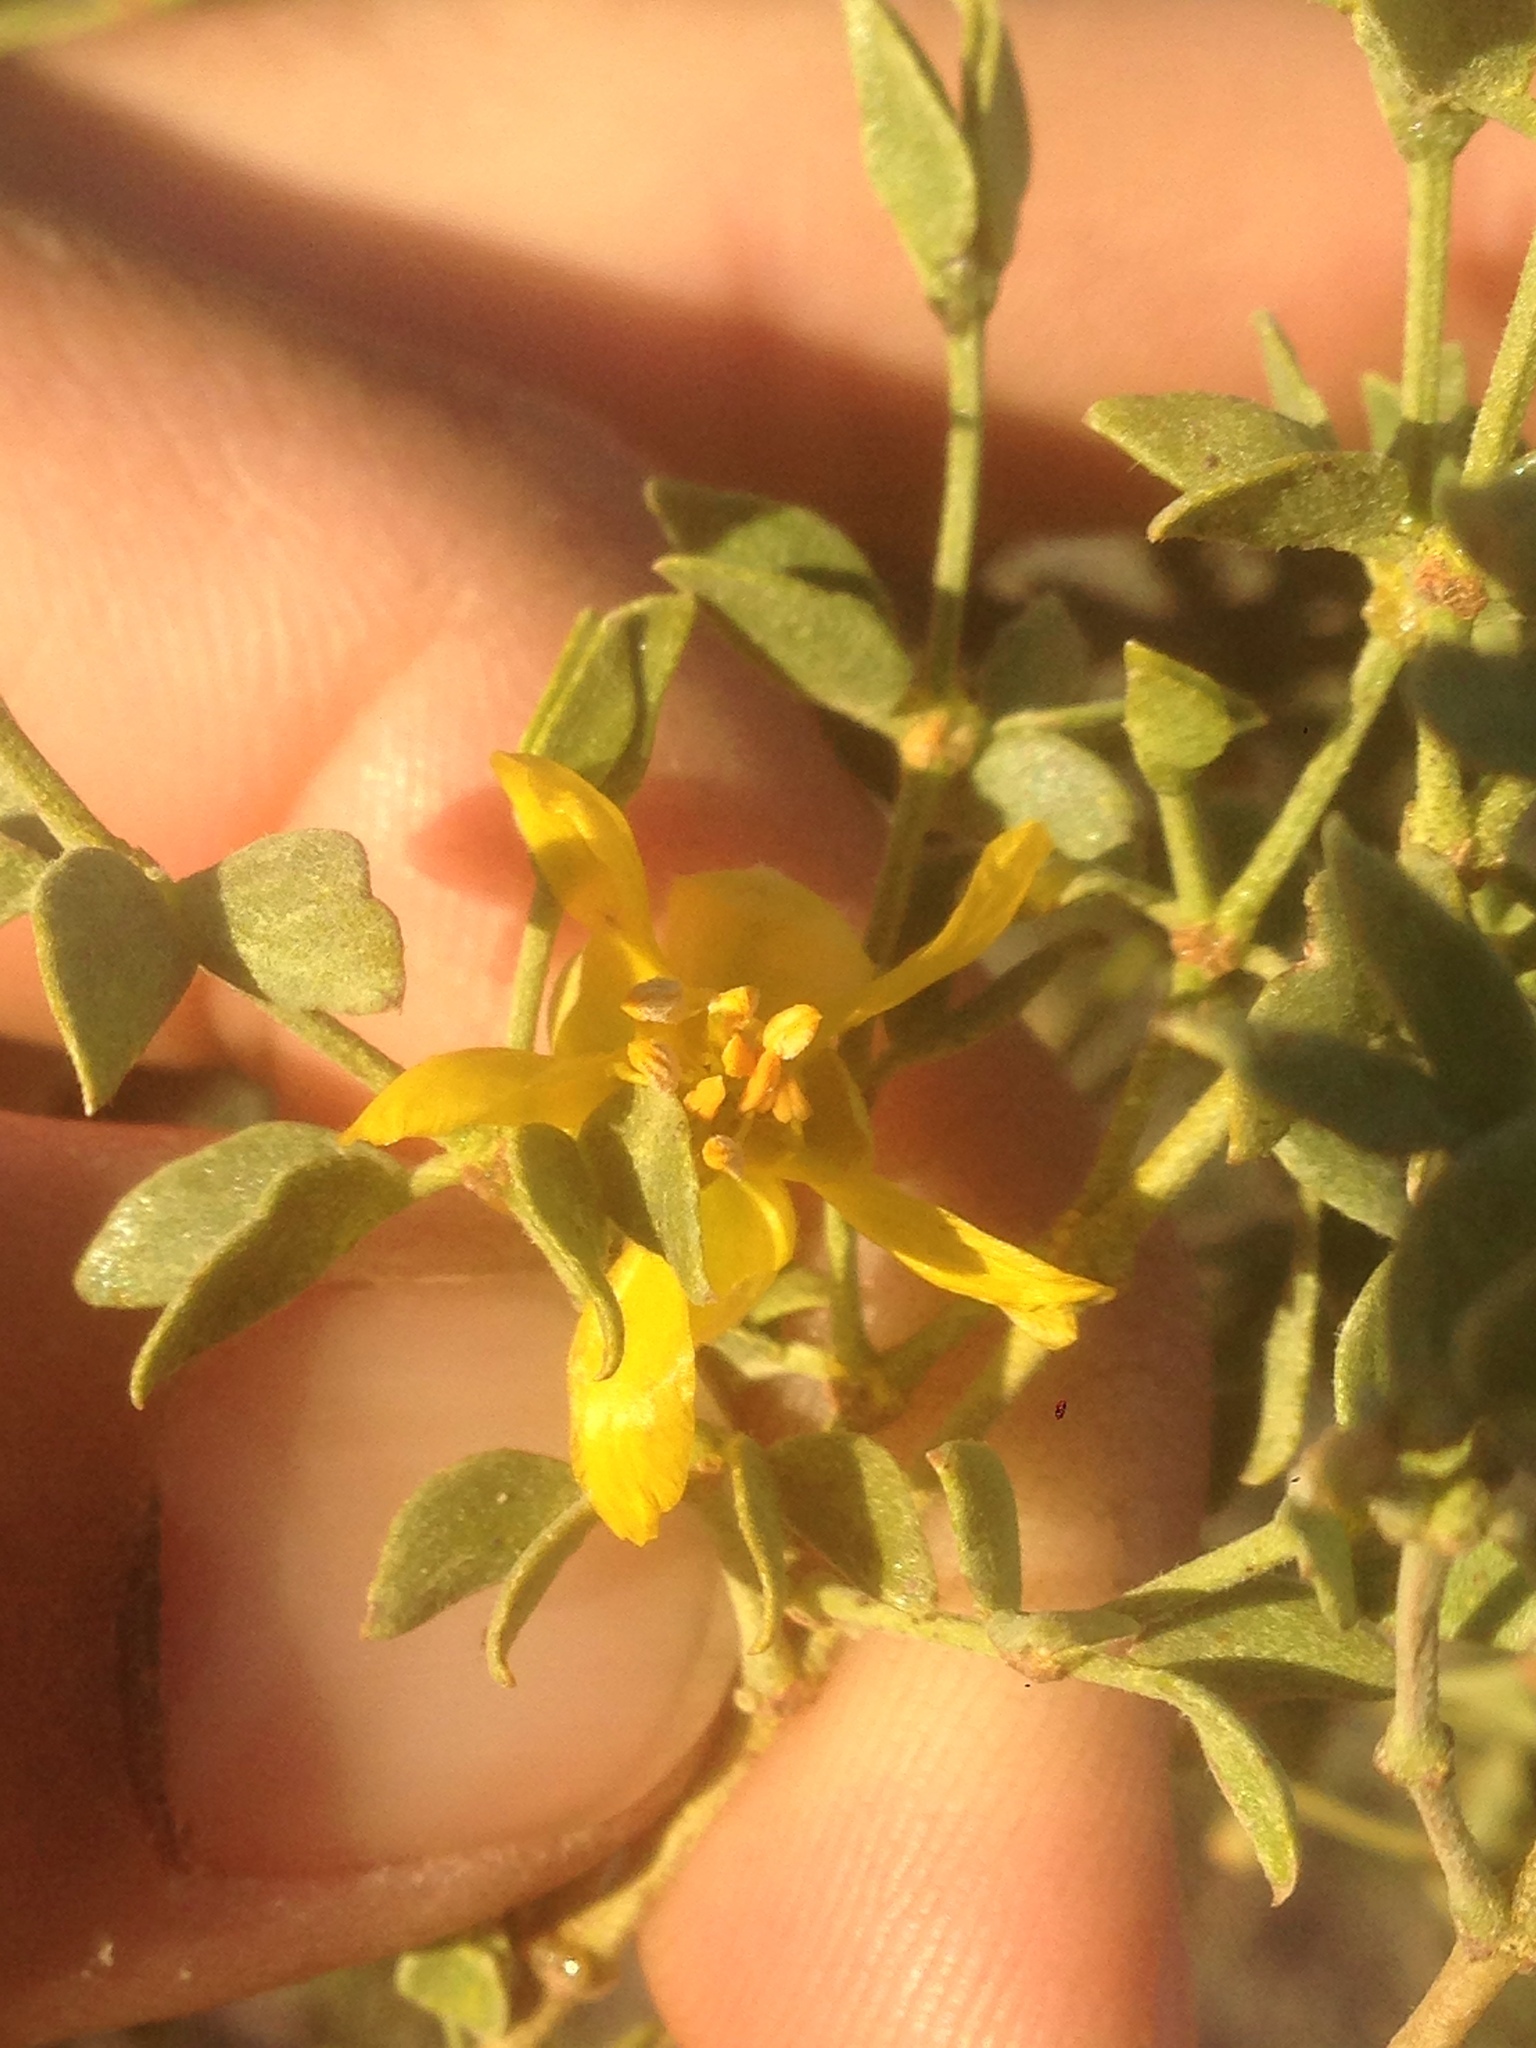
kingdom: Plantae
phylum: Tracheophyta
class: Magnoliopsida
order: Zygophyllales
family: Zygophyllaceae
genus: Larrea
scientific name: Larrea tridentata
